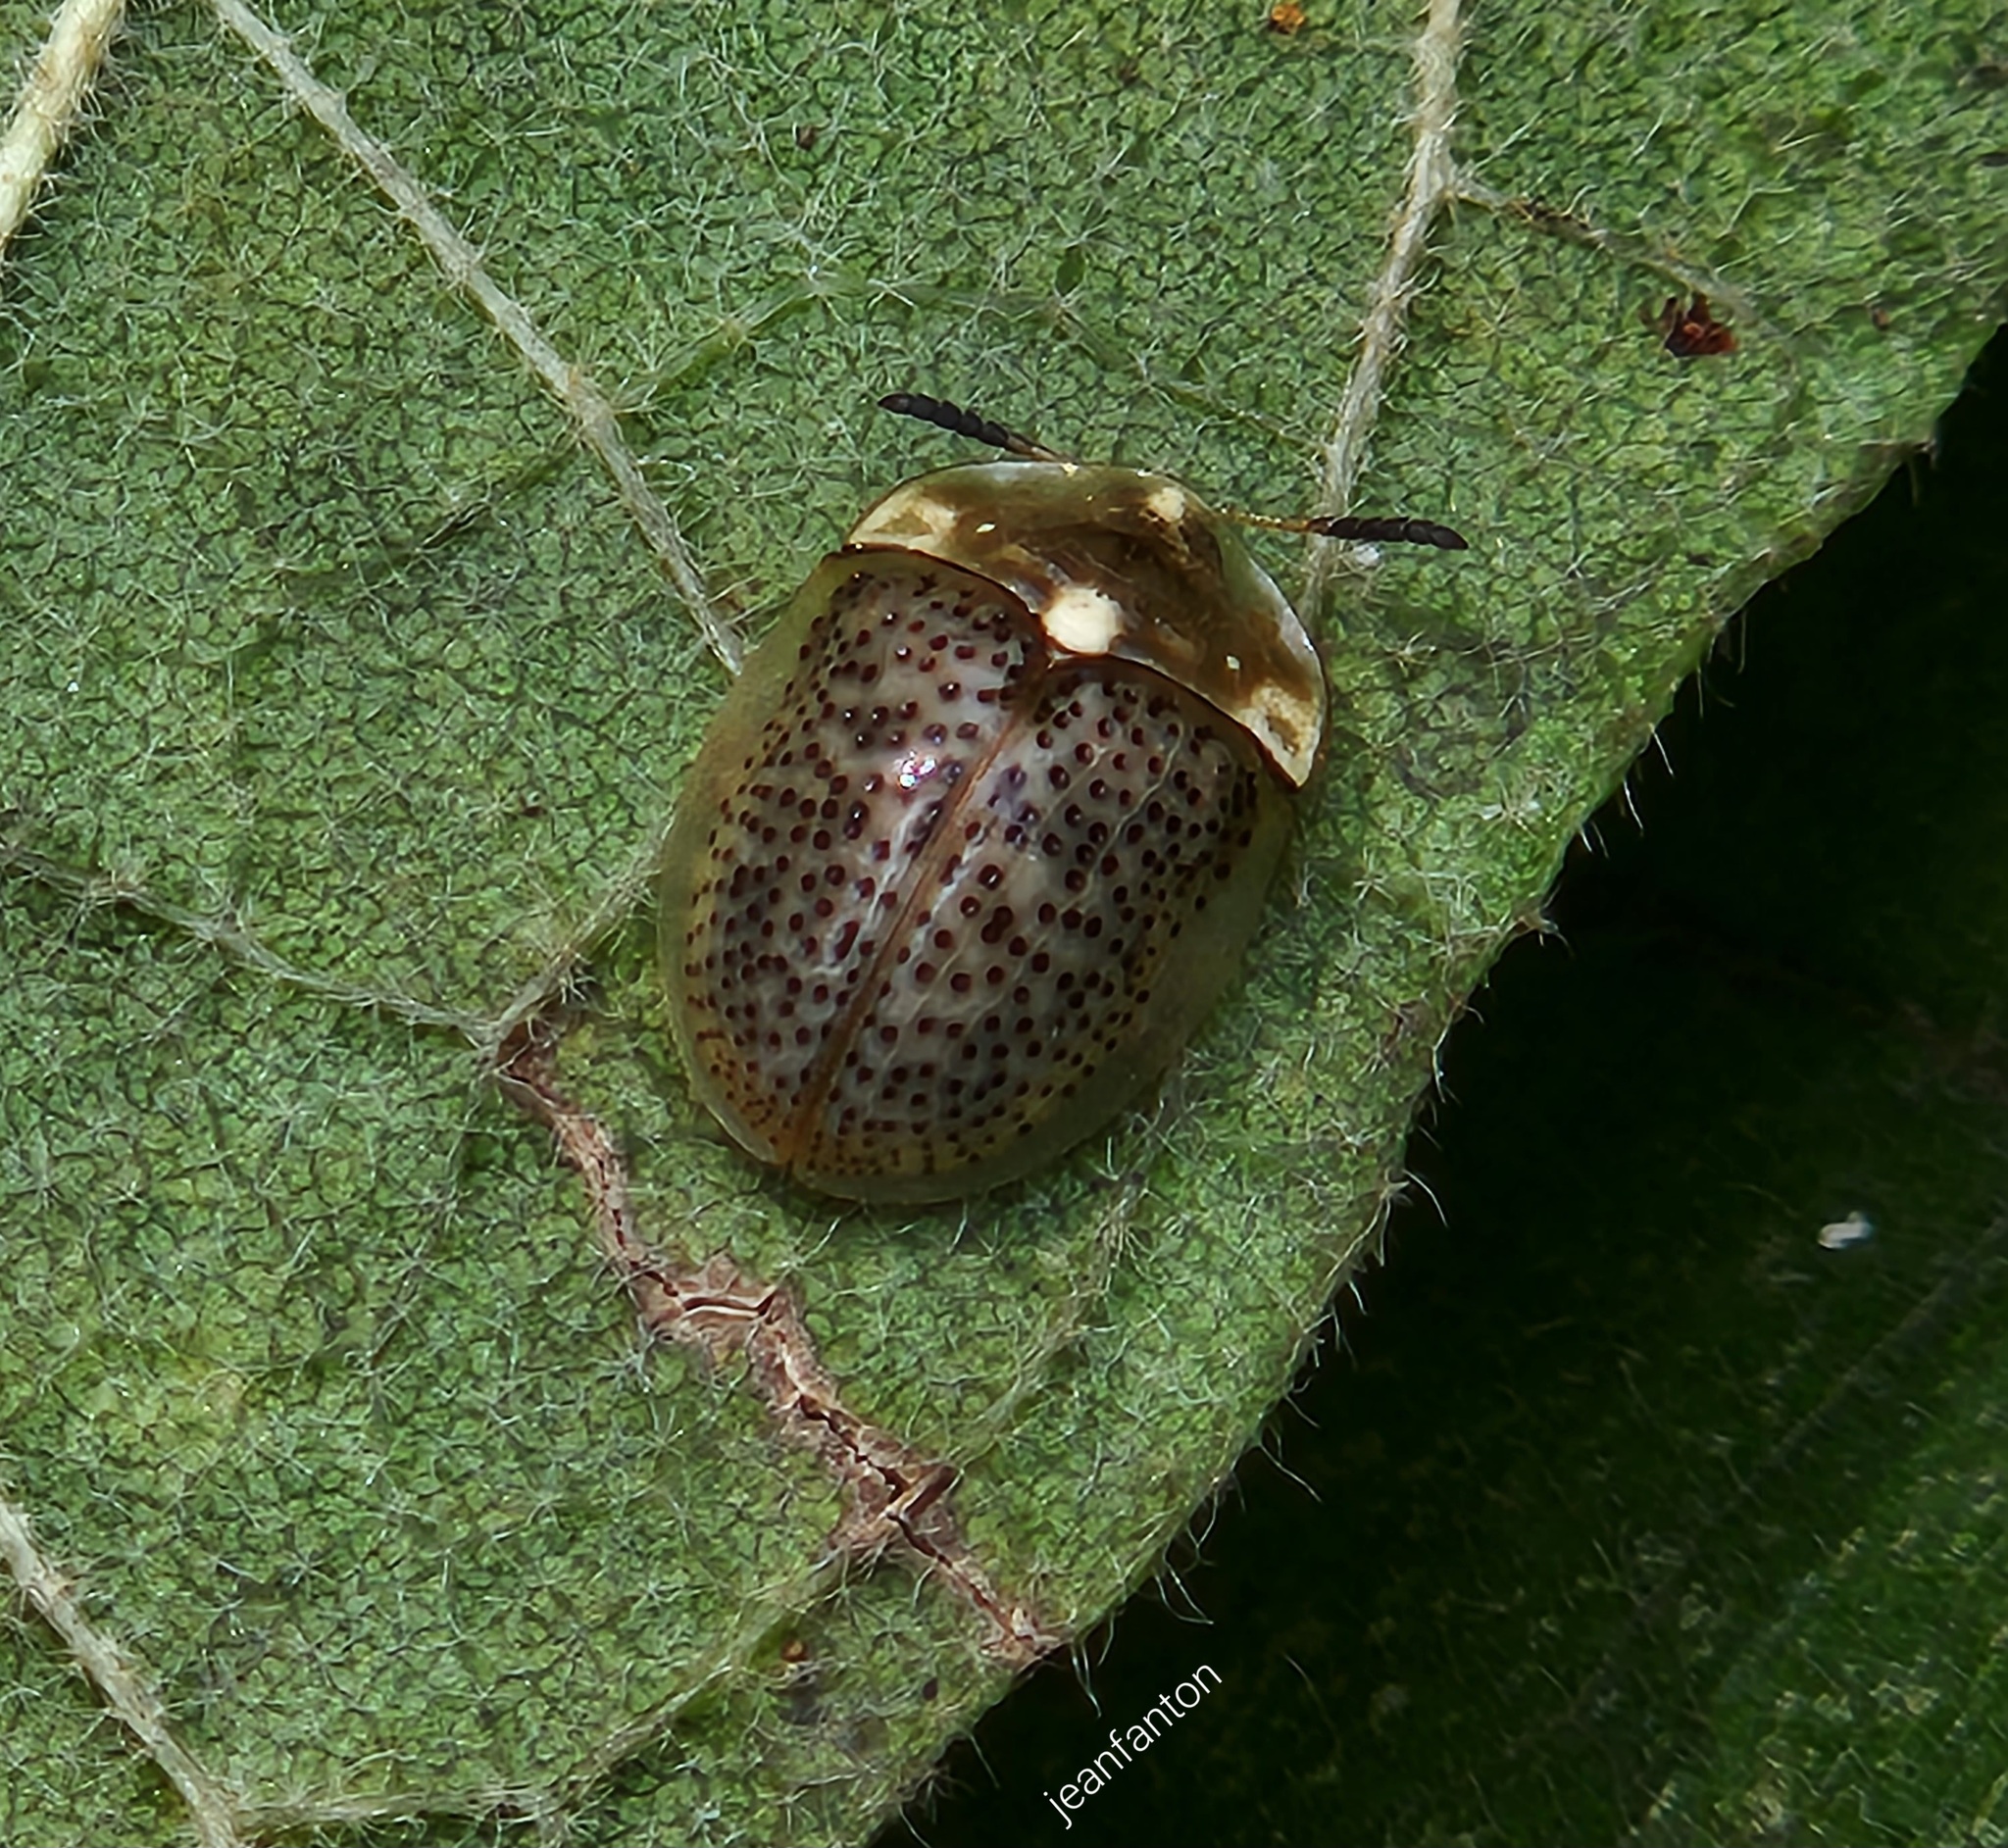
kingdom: Animalia
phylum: Arthropoda
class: Insecta
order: Coleoptera
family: Chrysomelidae
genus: Cistudinella
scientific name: Cistudinella obducta
